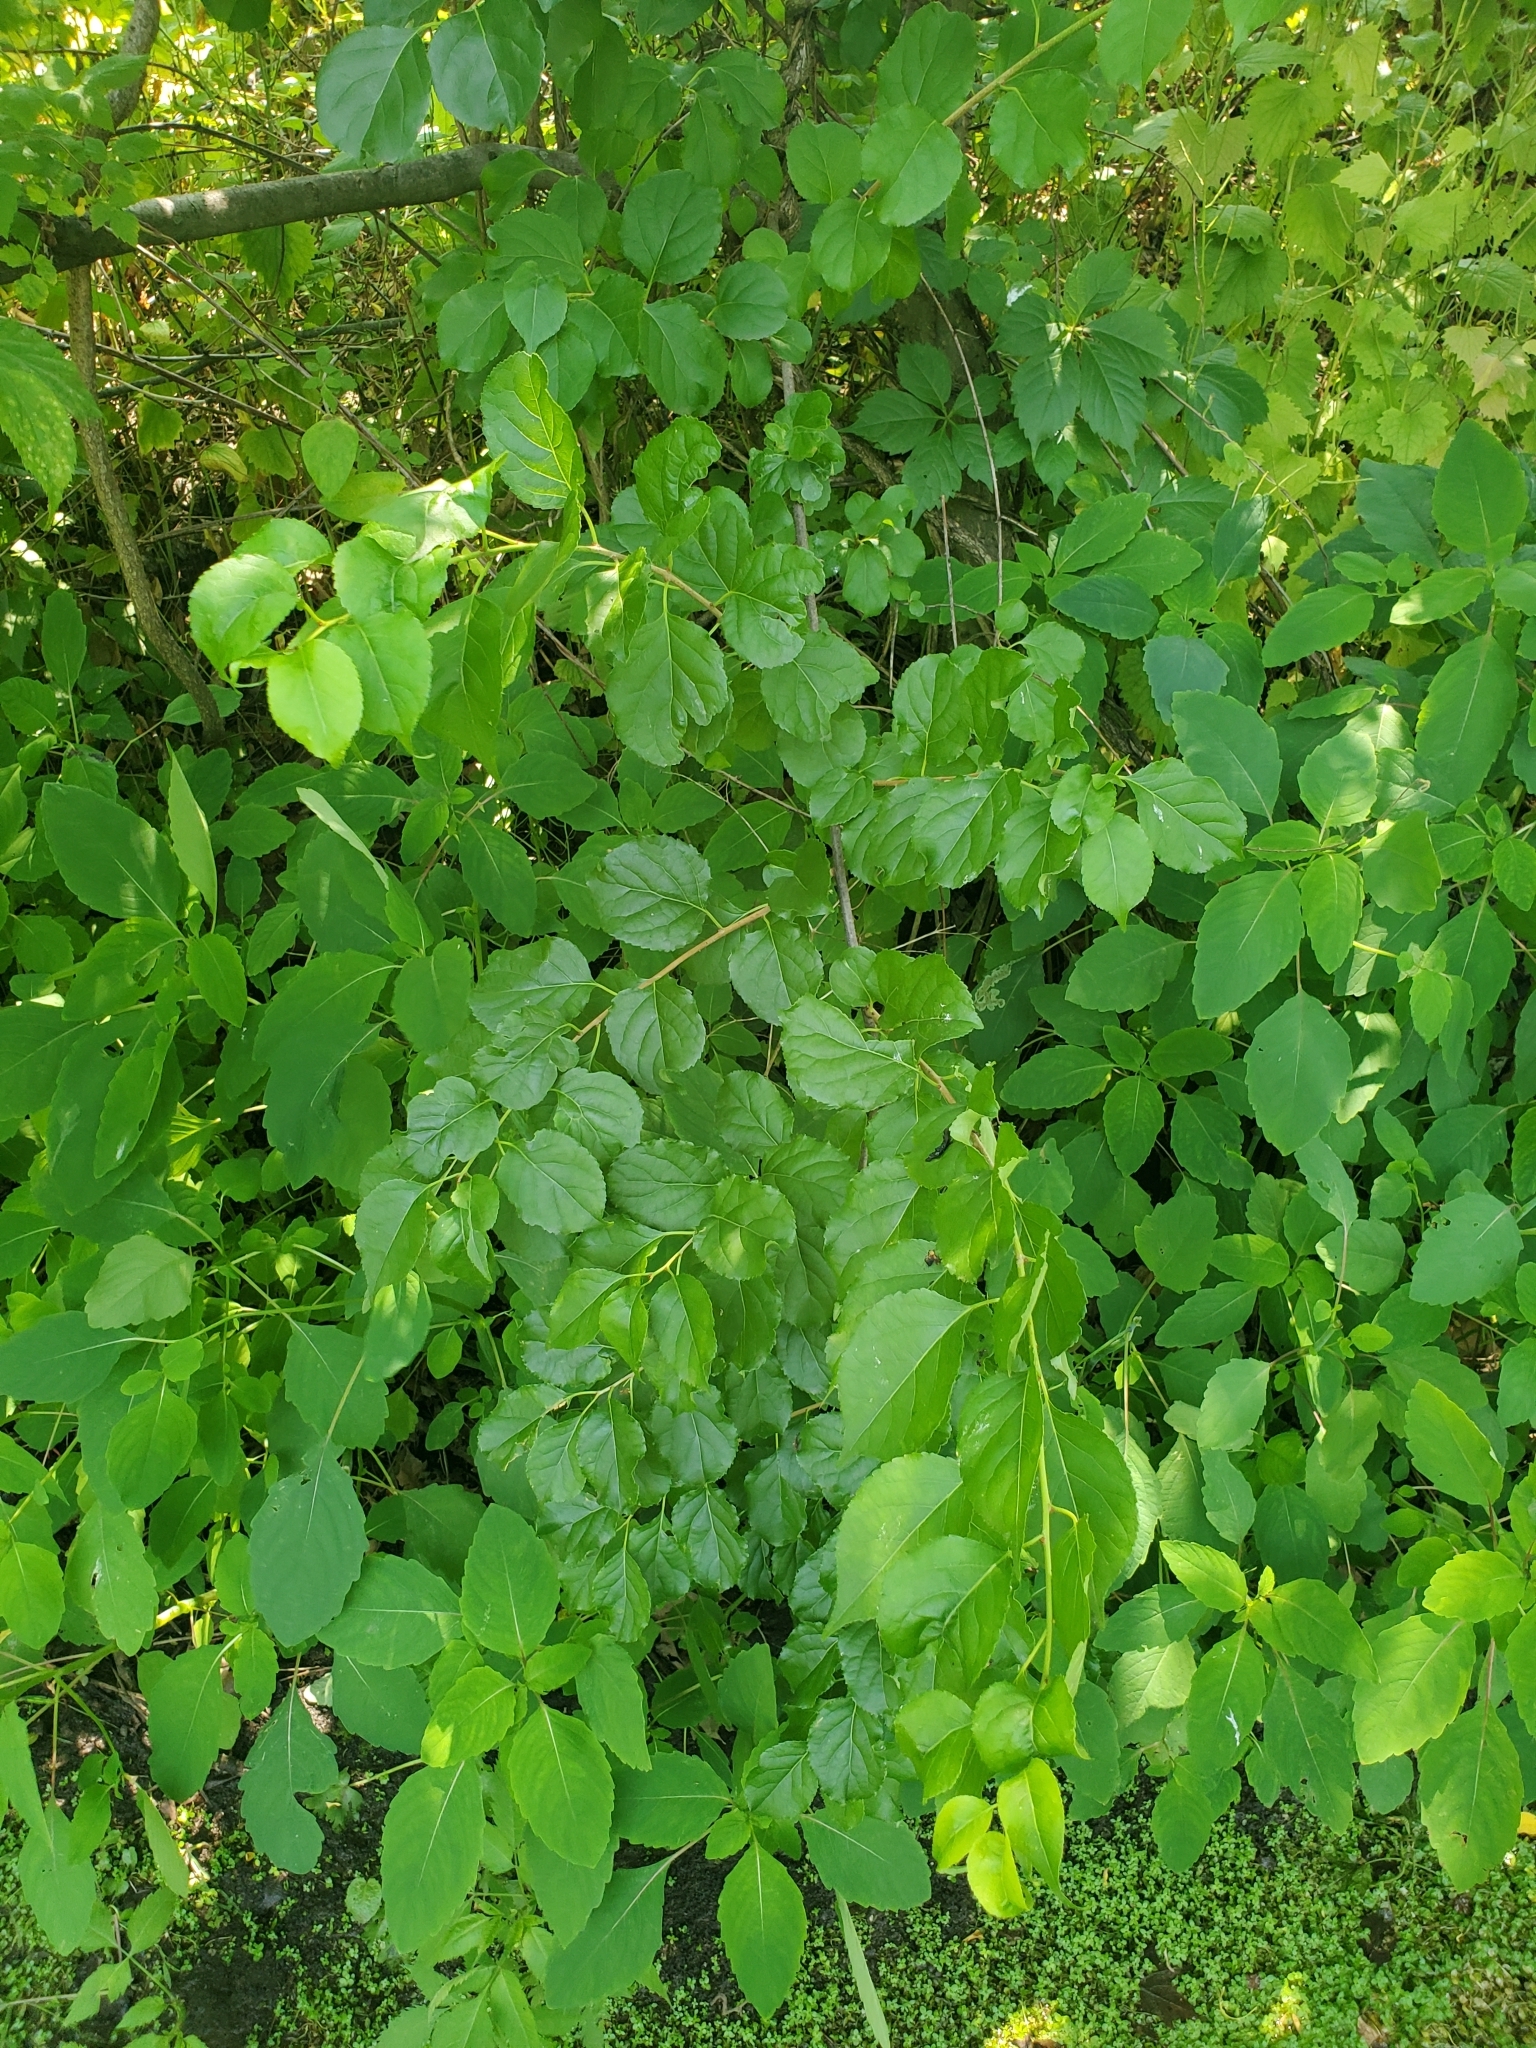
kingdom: Plantae
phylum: Tracheophyta
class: Magnoliopsida
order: Celastrales
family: Celastraceae
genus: Celastrus
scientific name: Celastrus orbiculatus
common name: Oriental bittersweet
